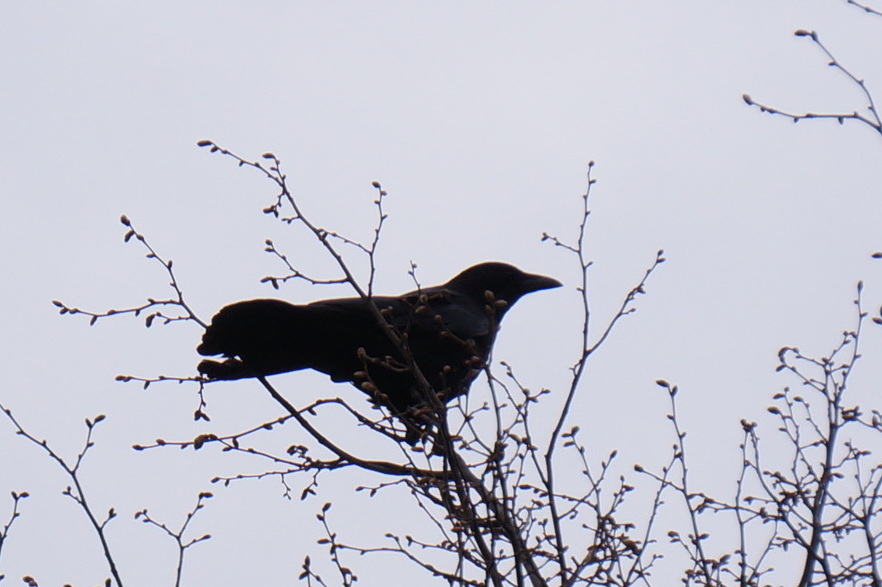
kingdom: Animalia
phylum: Chordata
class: Aves
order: Passeriformes
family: Corvidae
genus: Corvus
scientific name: Corvus corone
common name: Carrion crow
